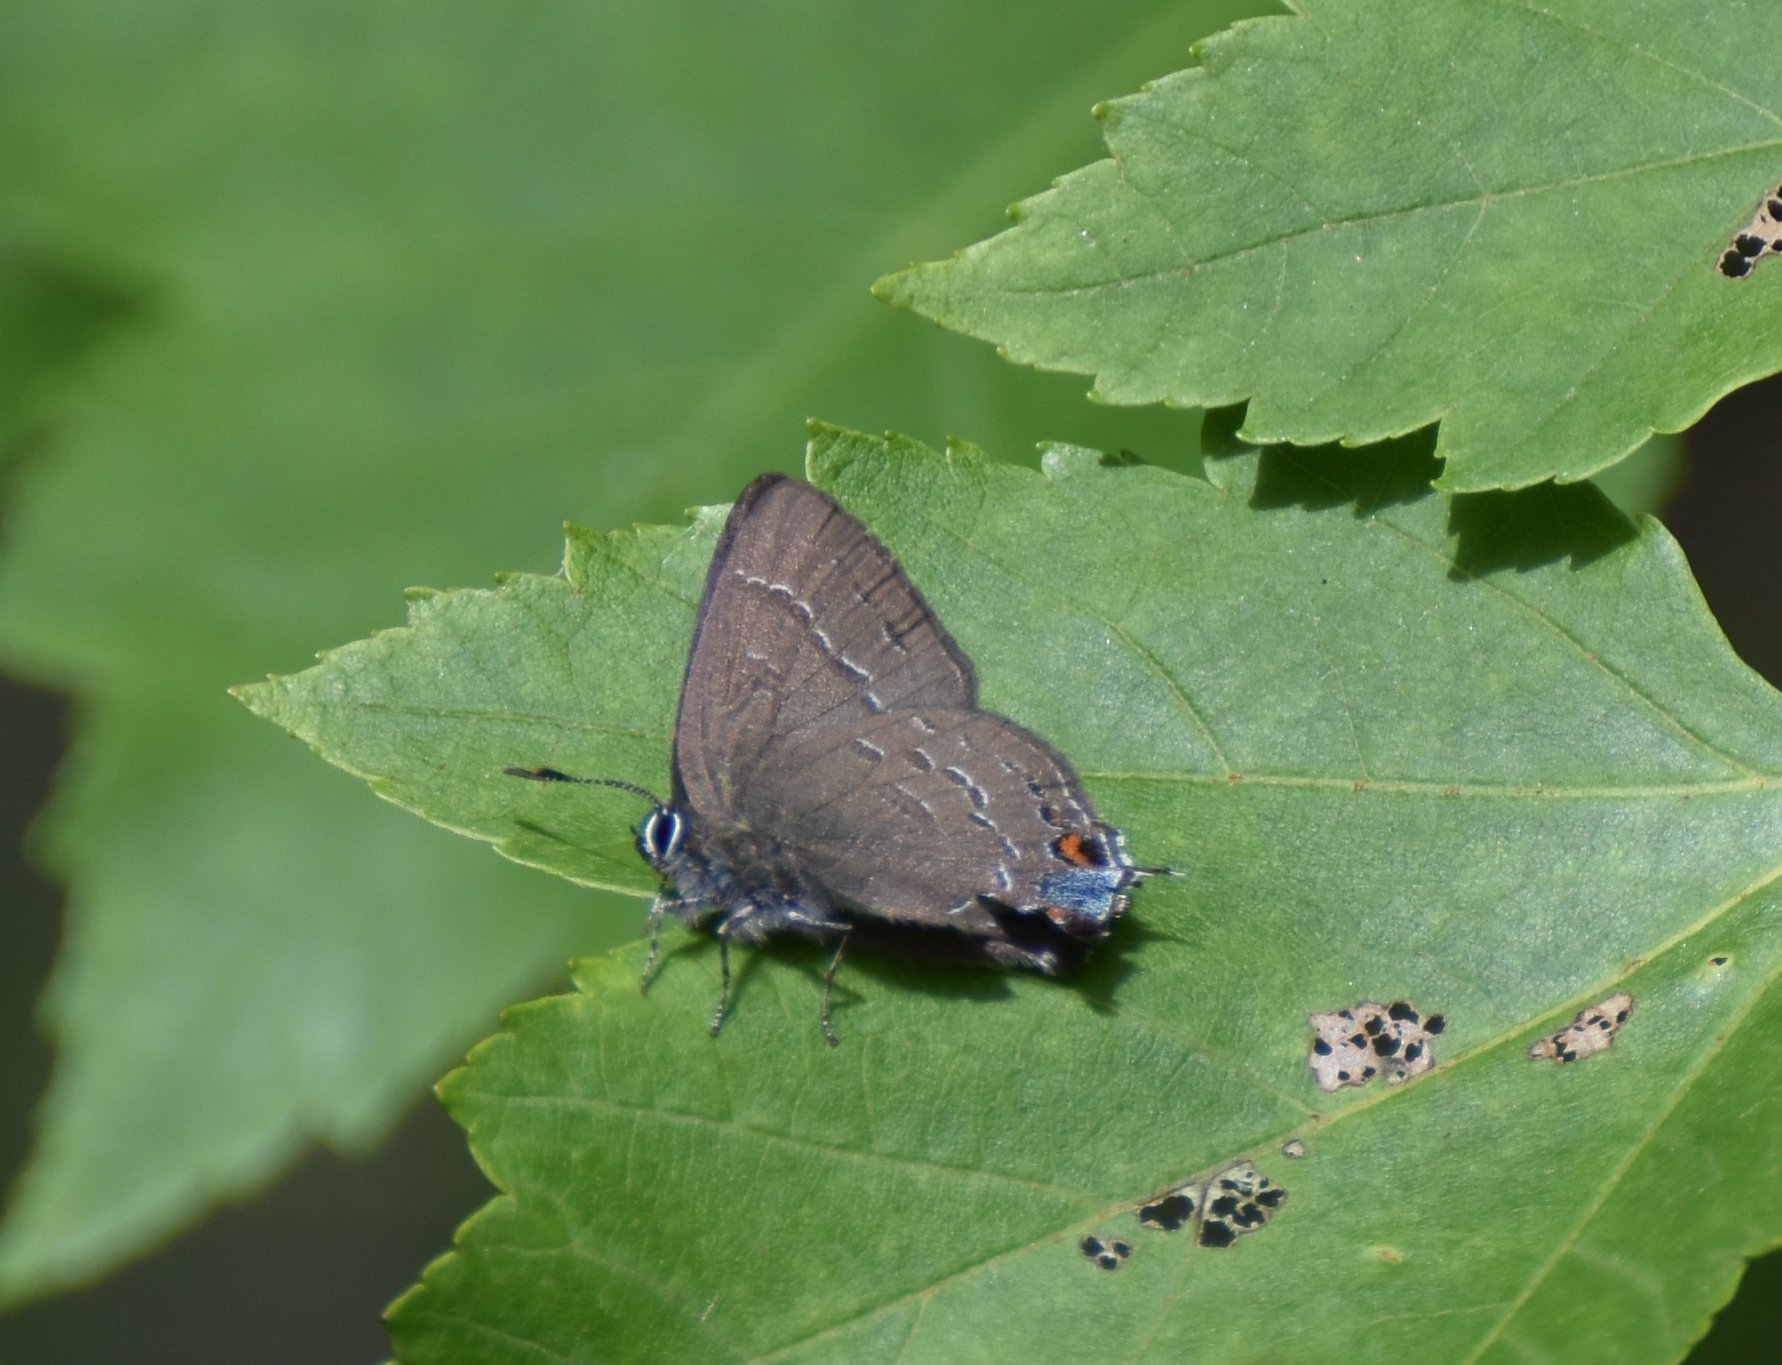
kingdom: Animalia
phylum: Arthropoda
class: Insecta
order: Lepidoptera
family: Lycaenidae
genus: Satyrium
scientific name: Satyrium calanus
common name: Banded hairstreak
